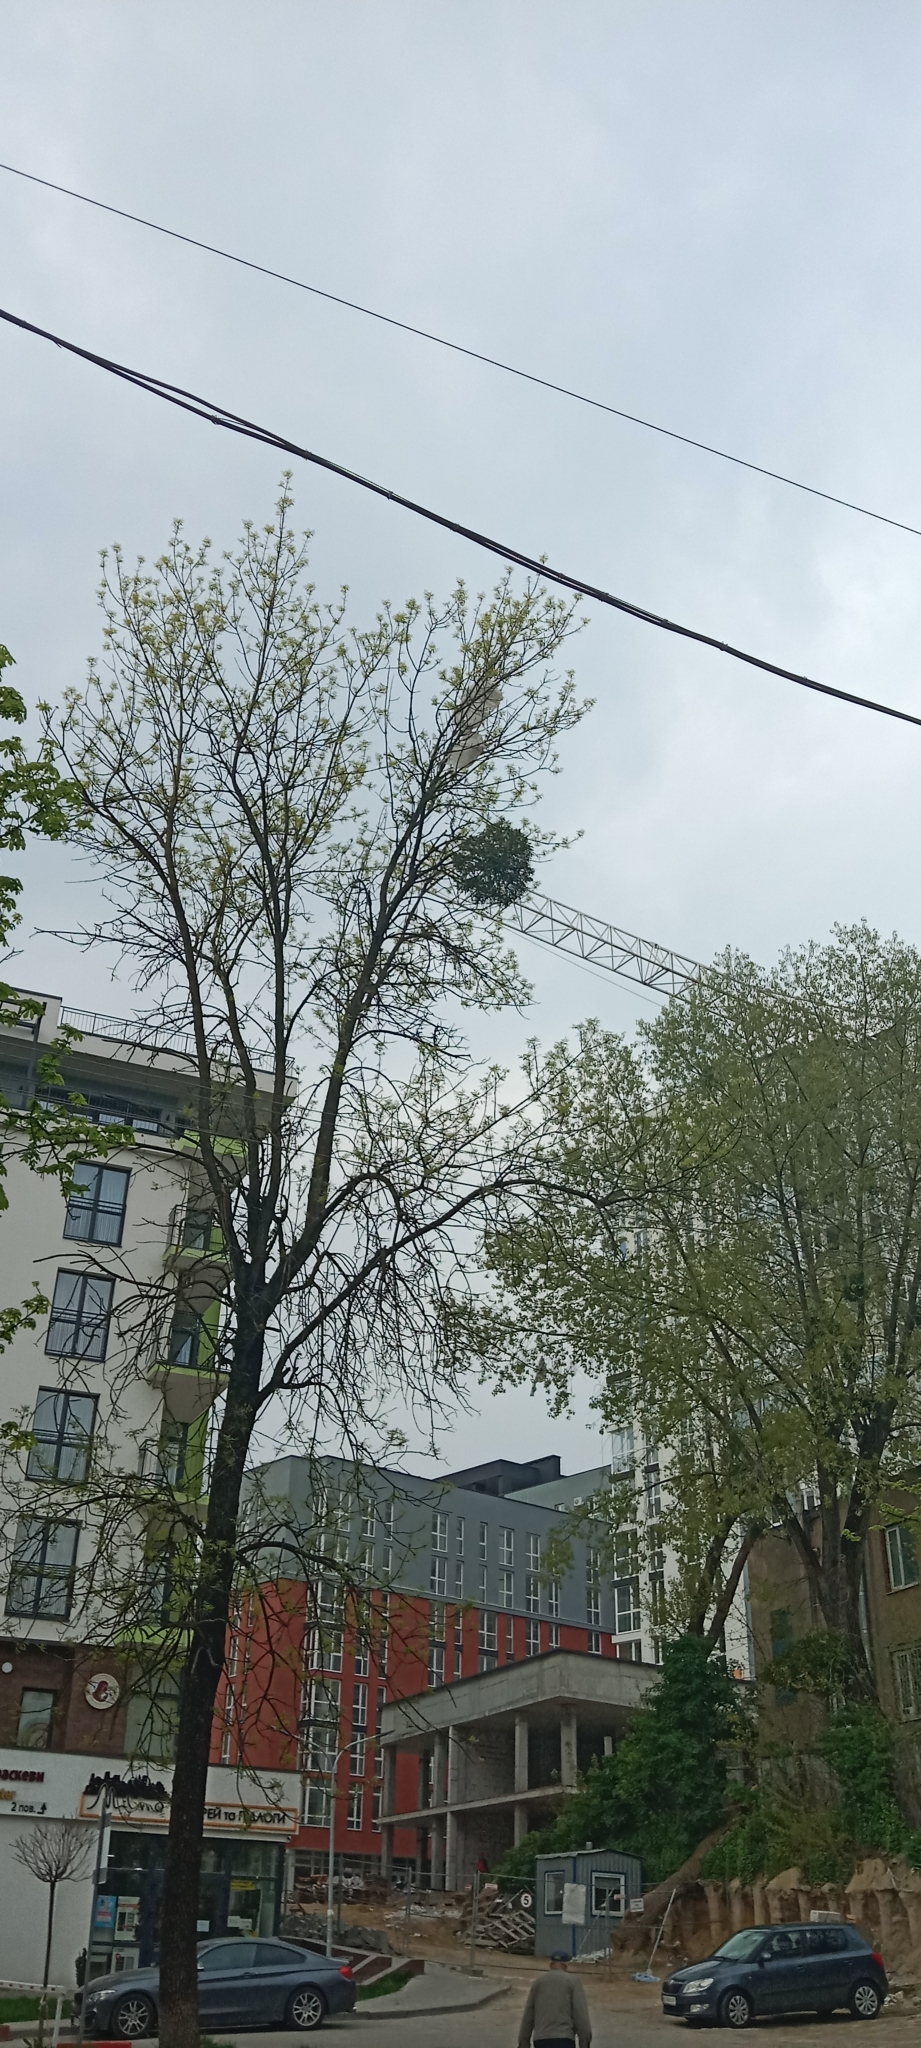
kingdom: Plantae
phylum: Tracheophyta
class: Magnoliopsida
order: Santalales
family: Viscaceae
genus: Viscum
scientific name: Viscum album
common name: Mistletoe
